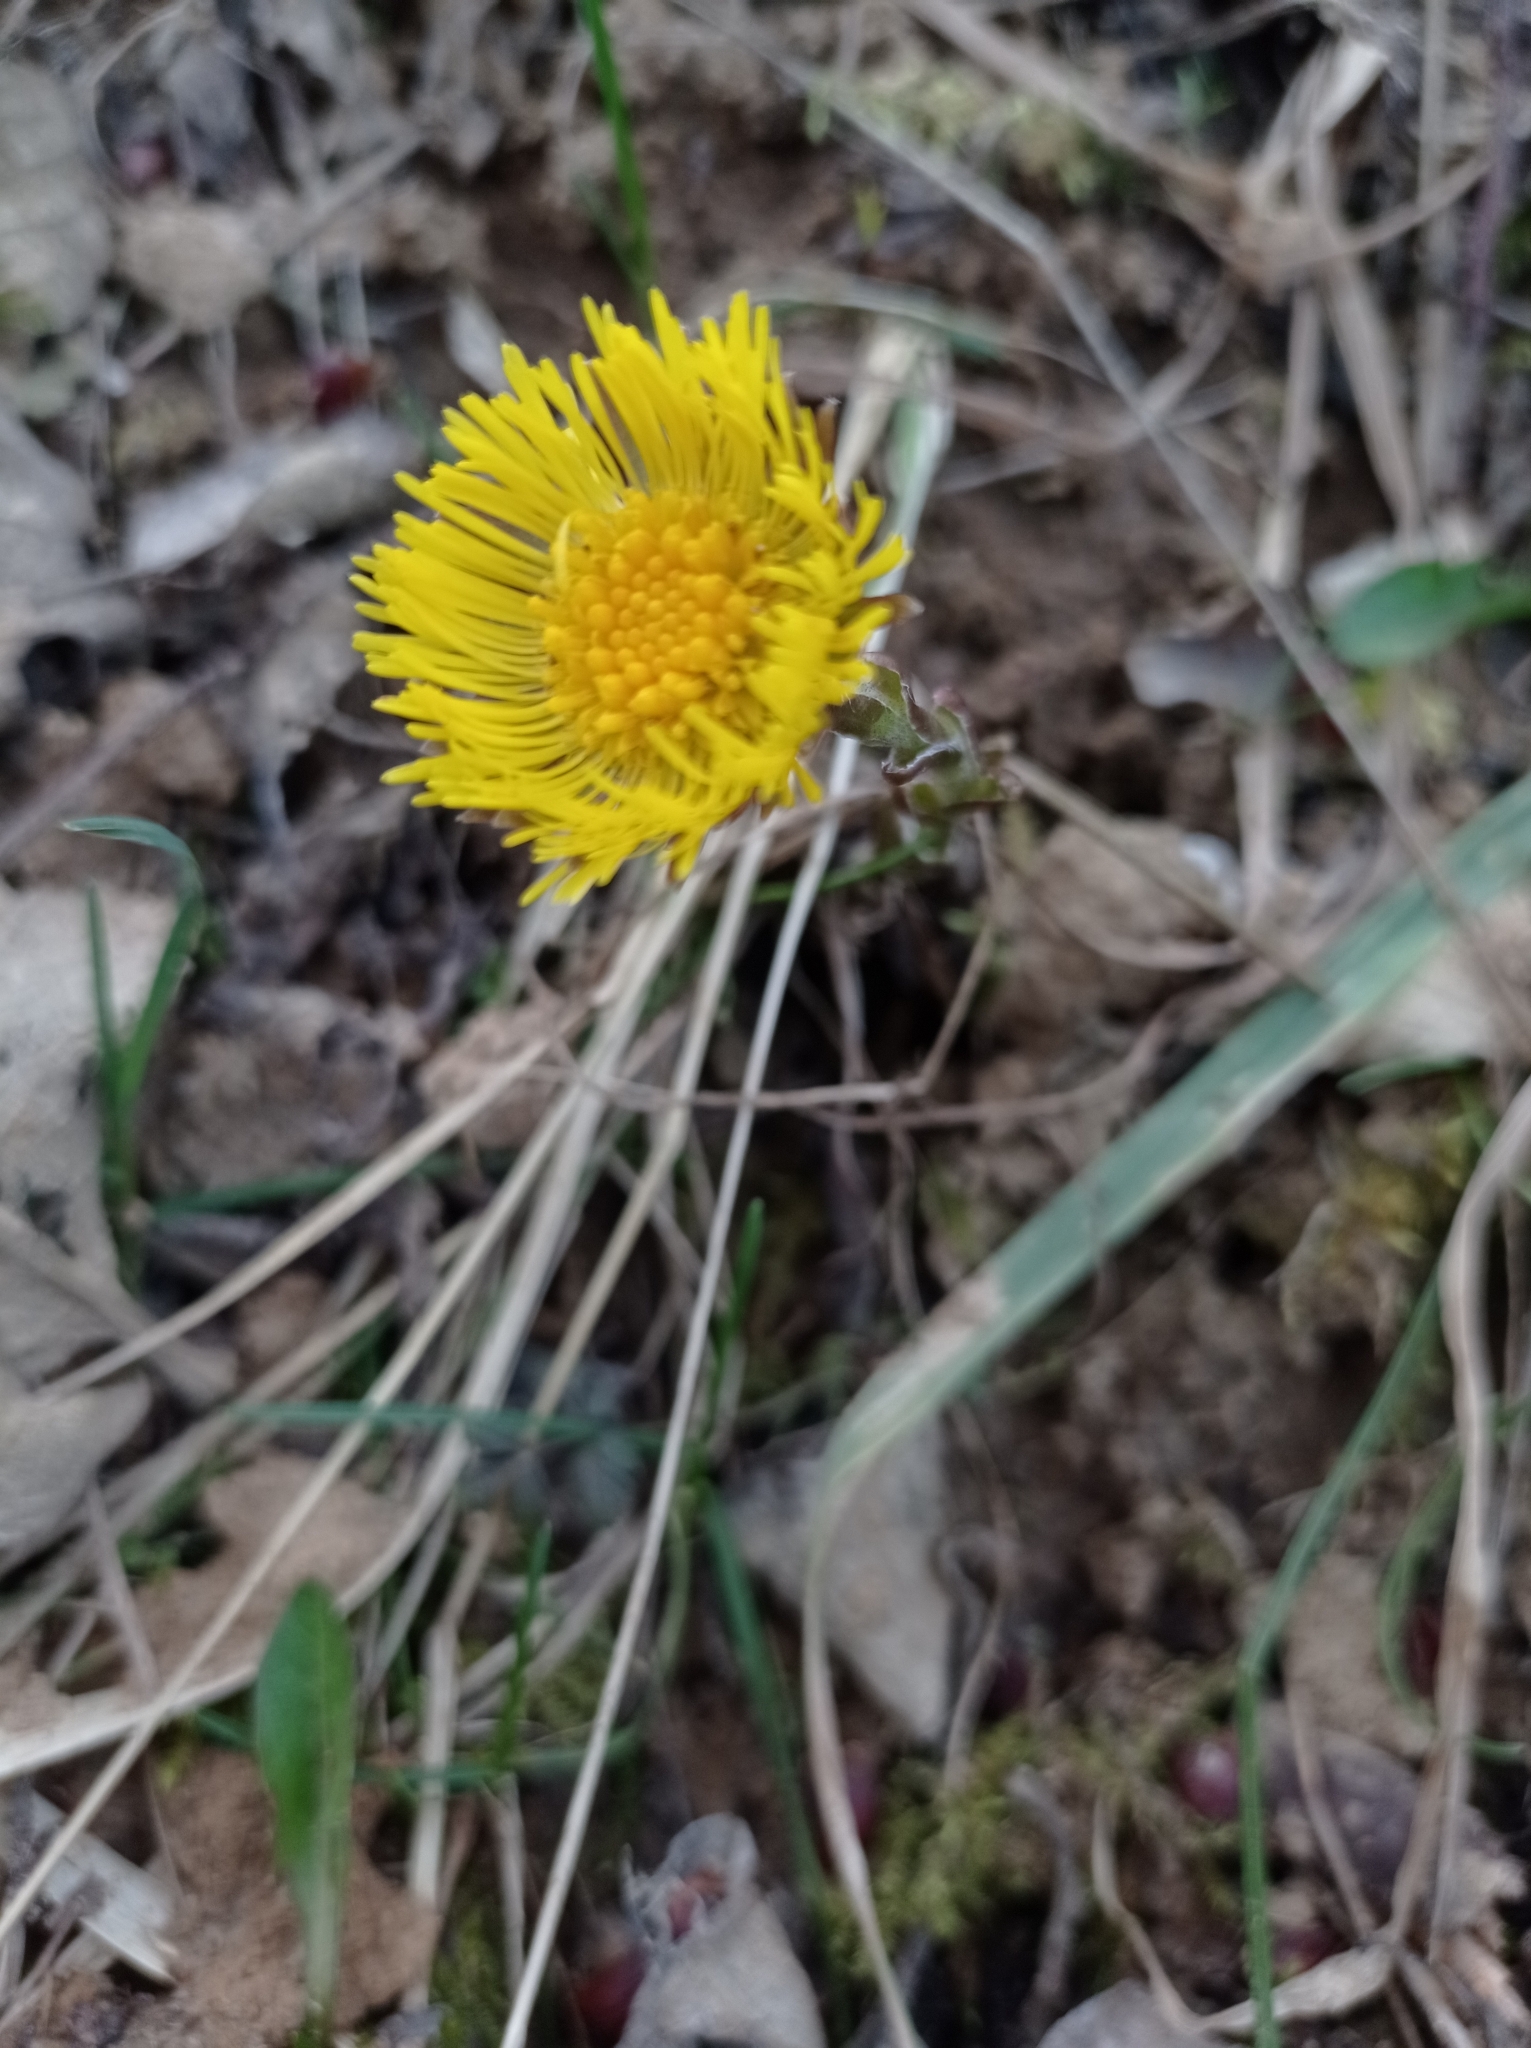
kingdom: Plantae
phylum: Tracheophyta
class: Magnoliopsida
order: Asterales
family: Asteraceae
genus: Tussilago
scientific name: Tussilago farfara
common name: Coltsfoot
